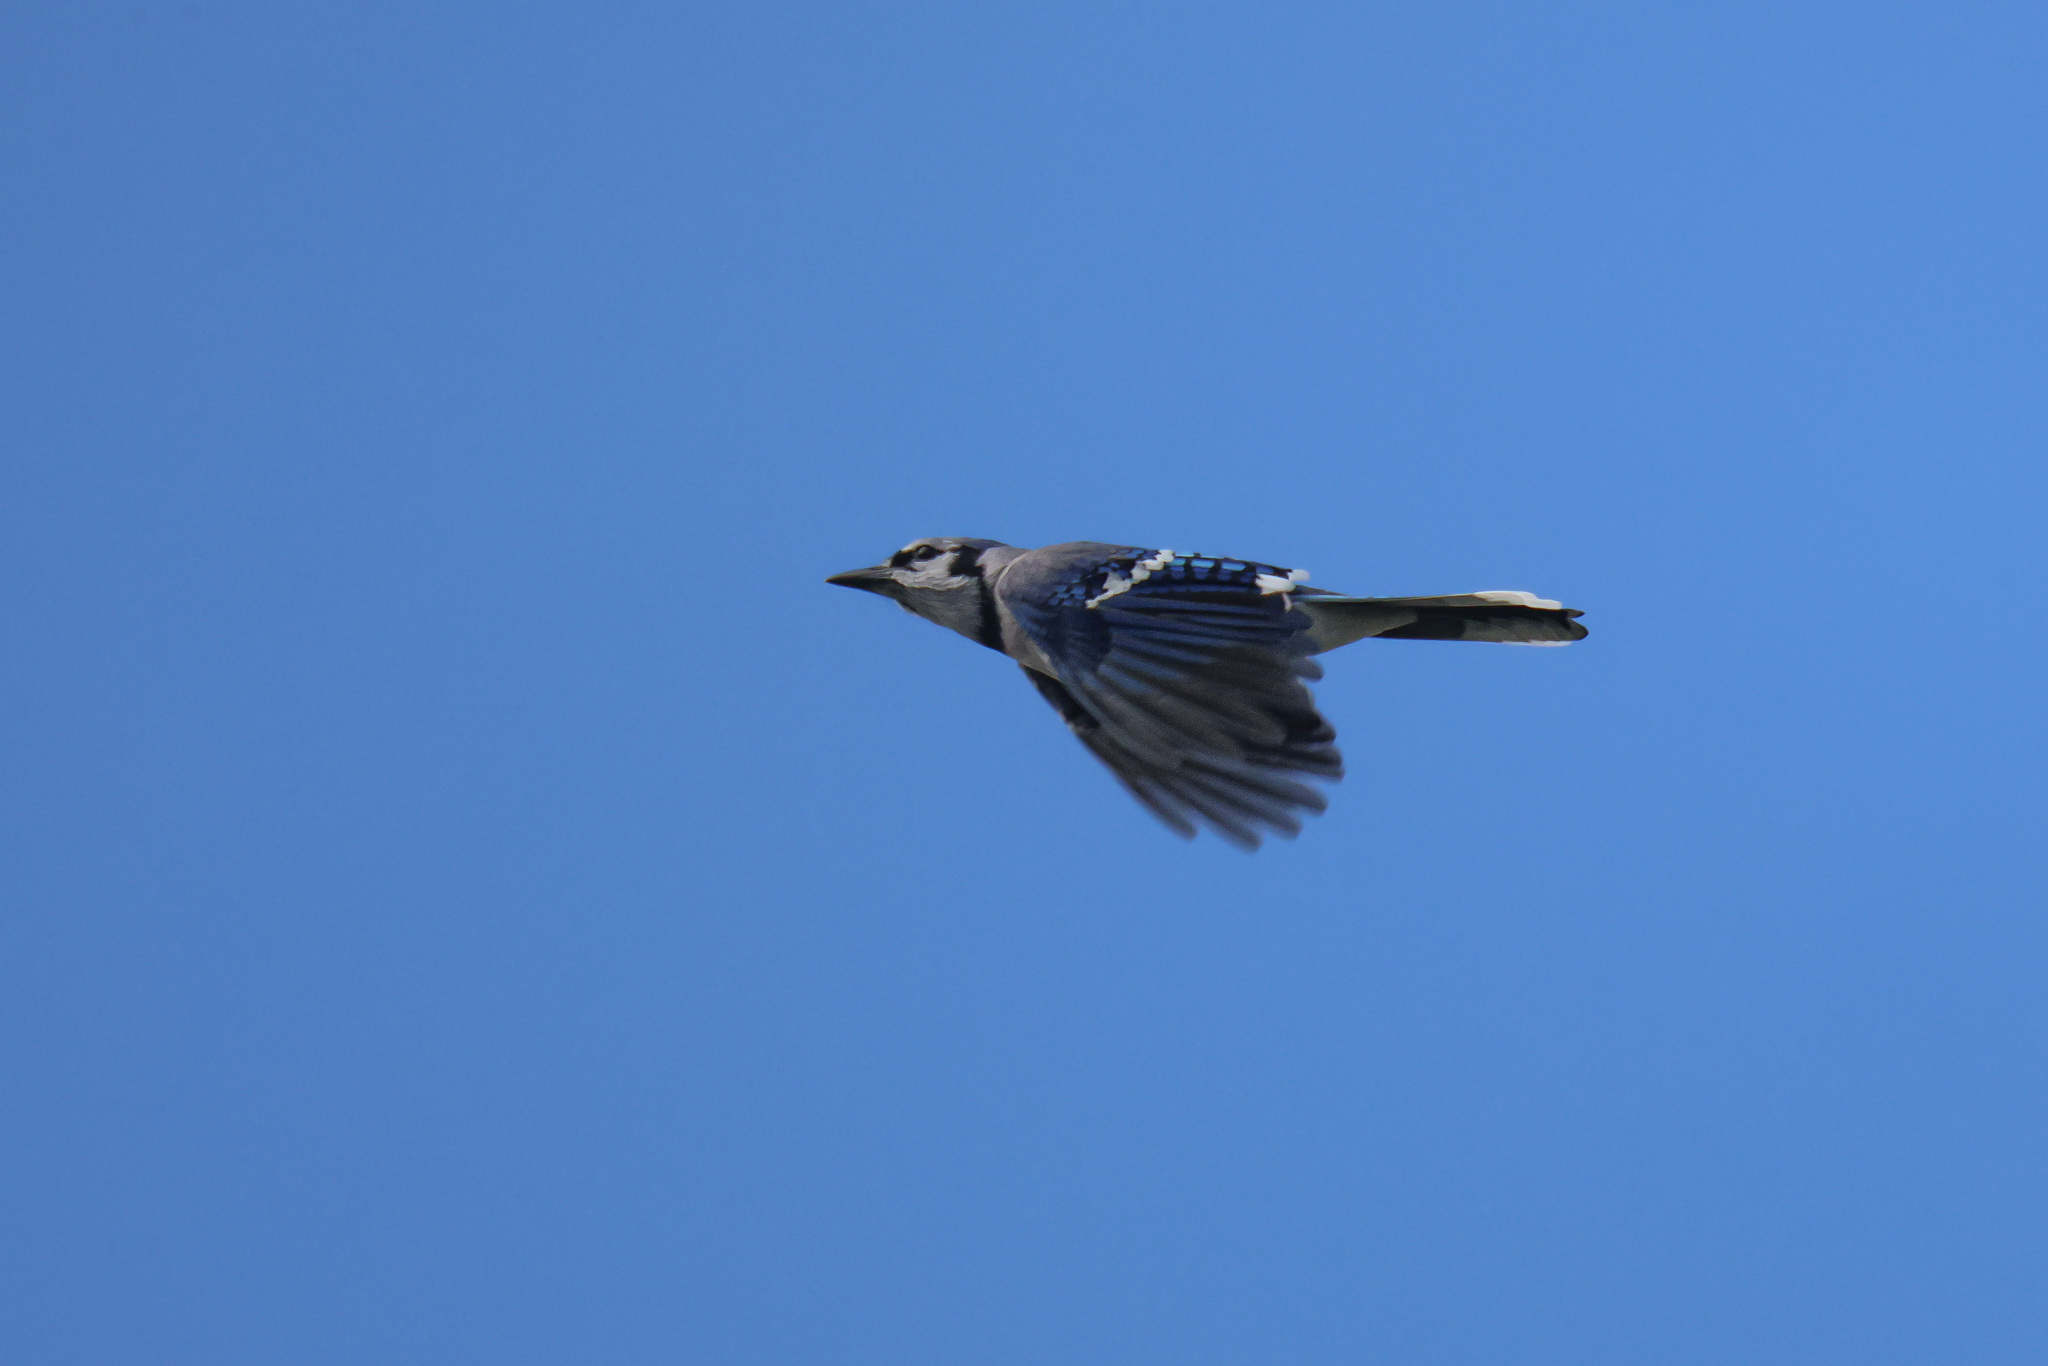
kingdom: Animalia
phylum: Chordata
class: Aves
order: Passeriformes
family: Corvidae
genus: Cyanocitta
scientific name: Cyanocitta cristata
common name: Blue jay
